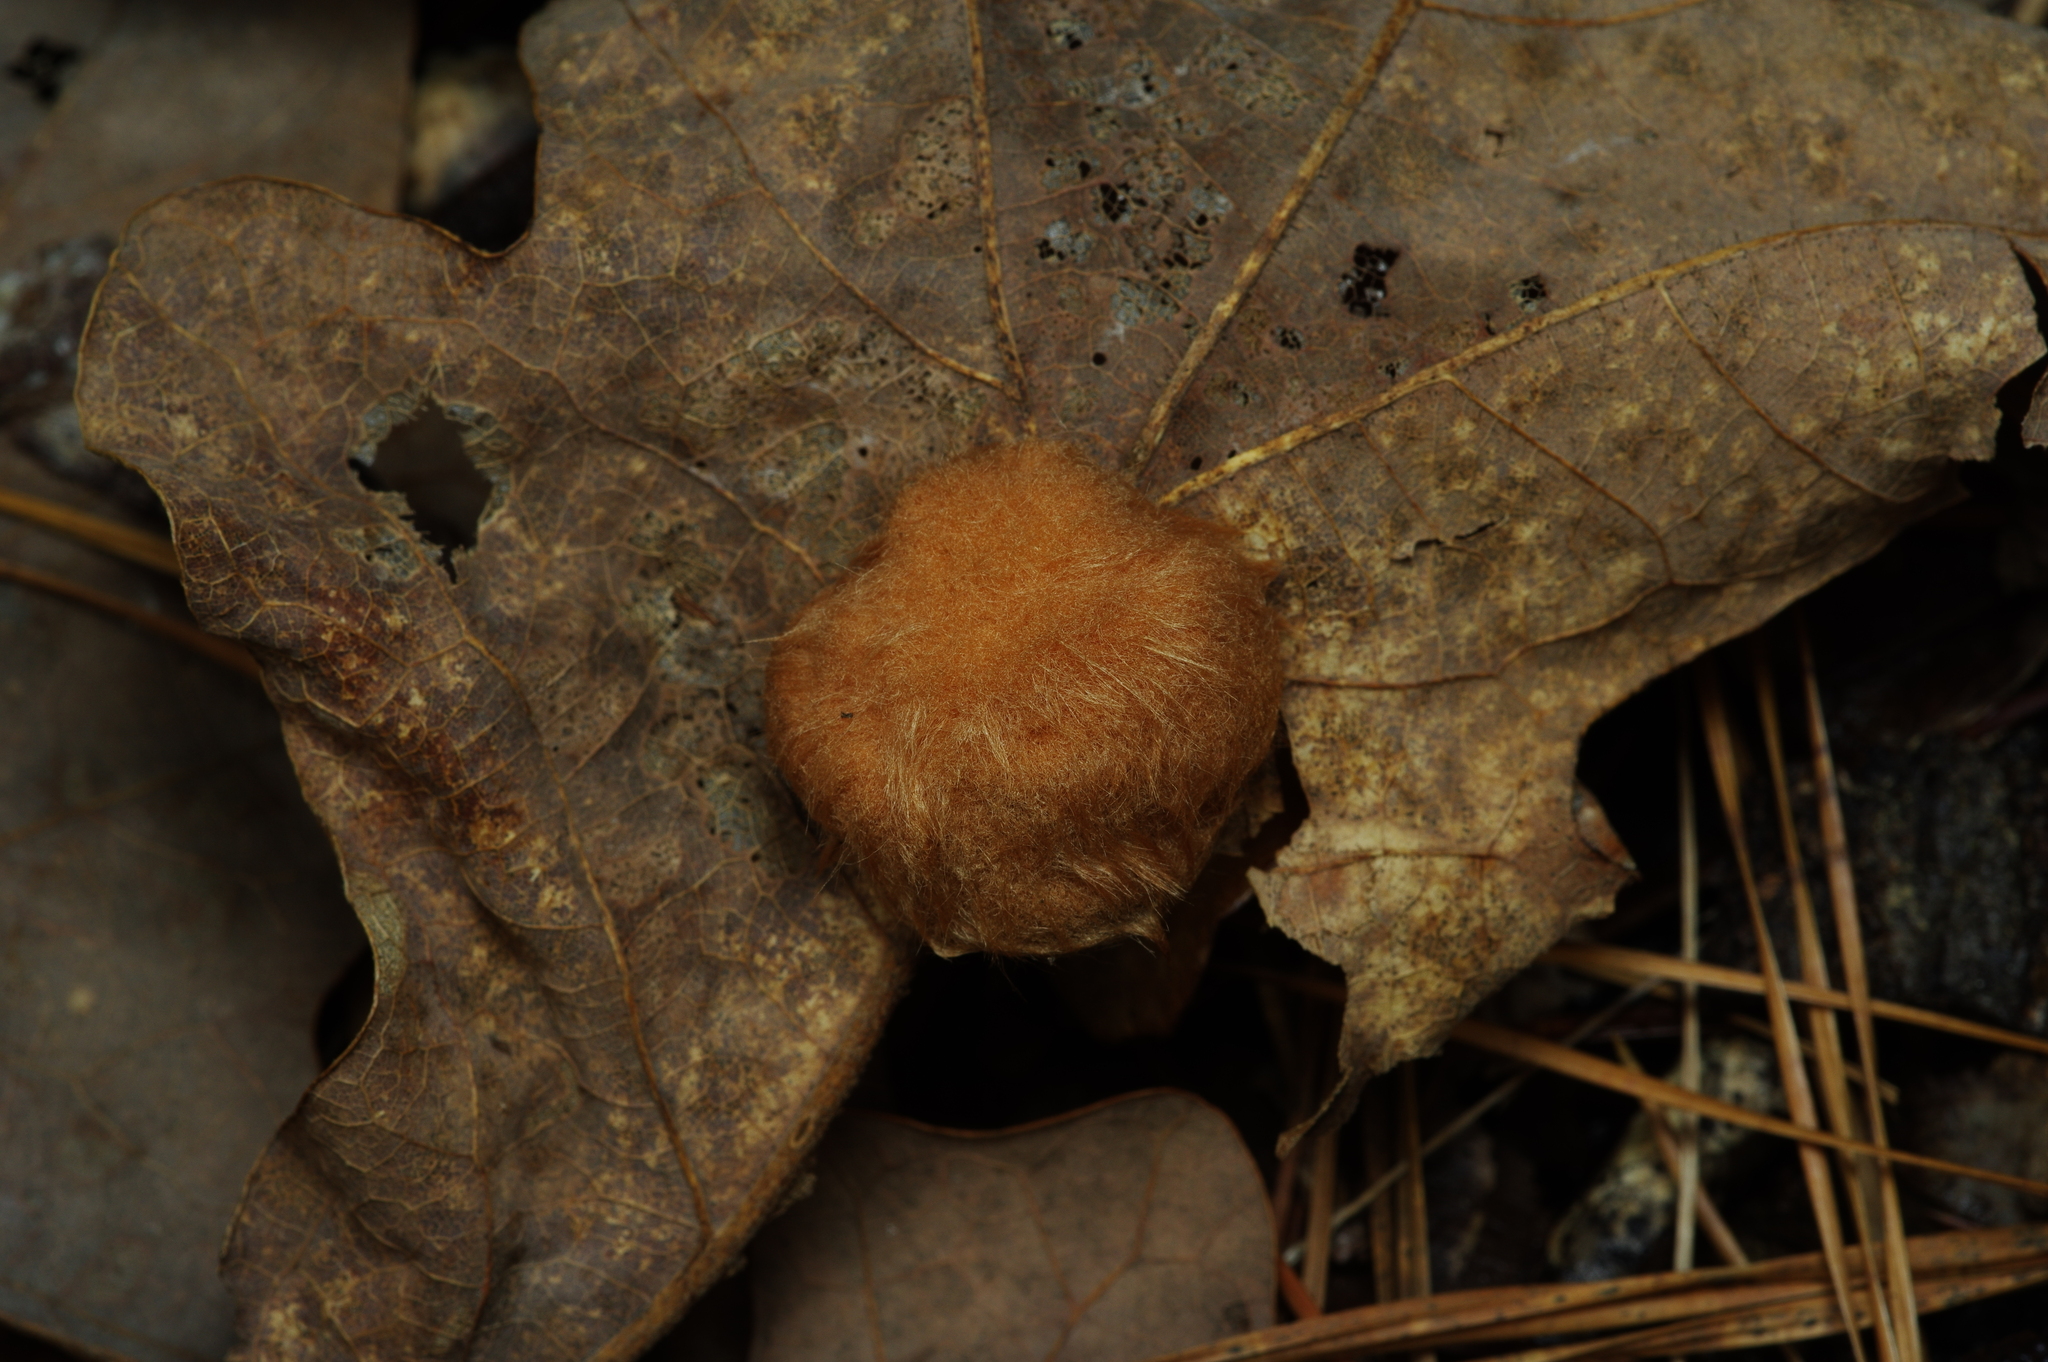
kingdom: Animalia
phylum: Arthropoda
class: Insecta
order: Hymenoptera
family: Cynipidae
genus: Andricus
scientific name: Andricus Druon pattoni
